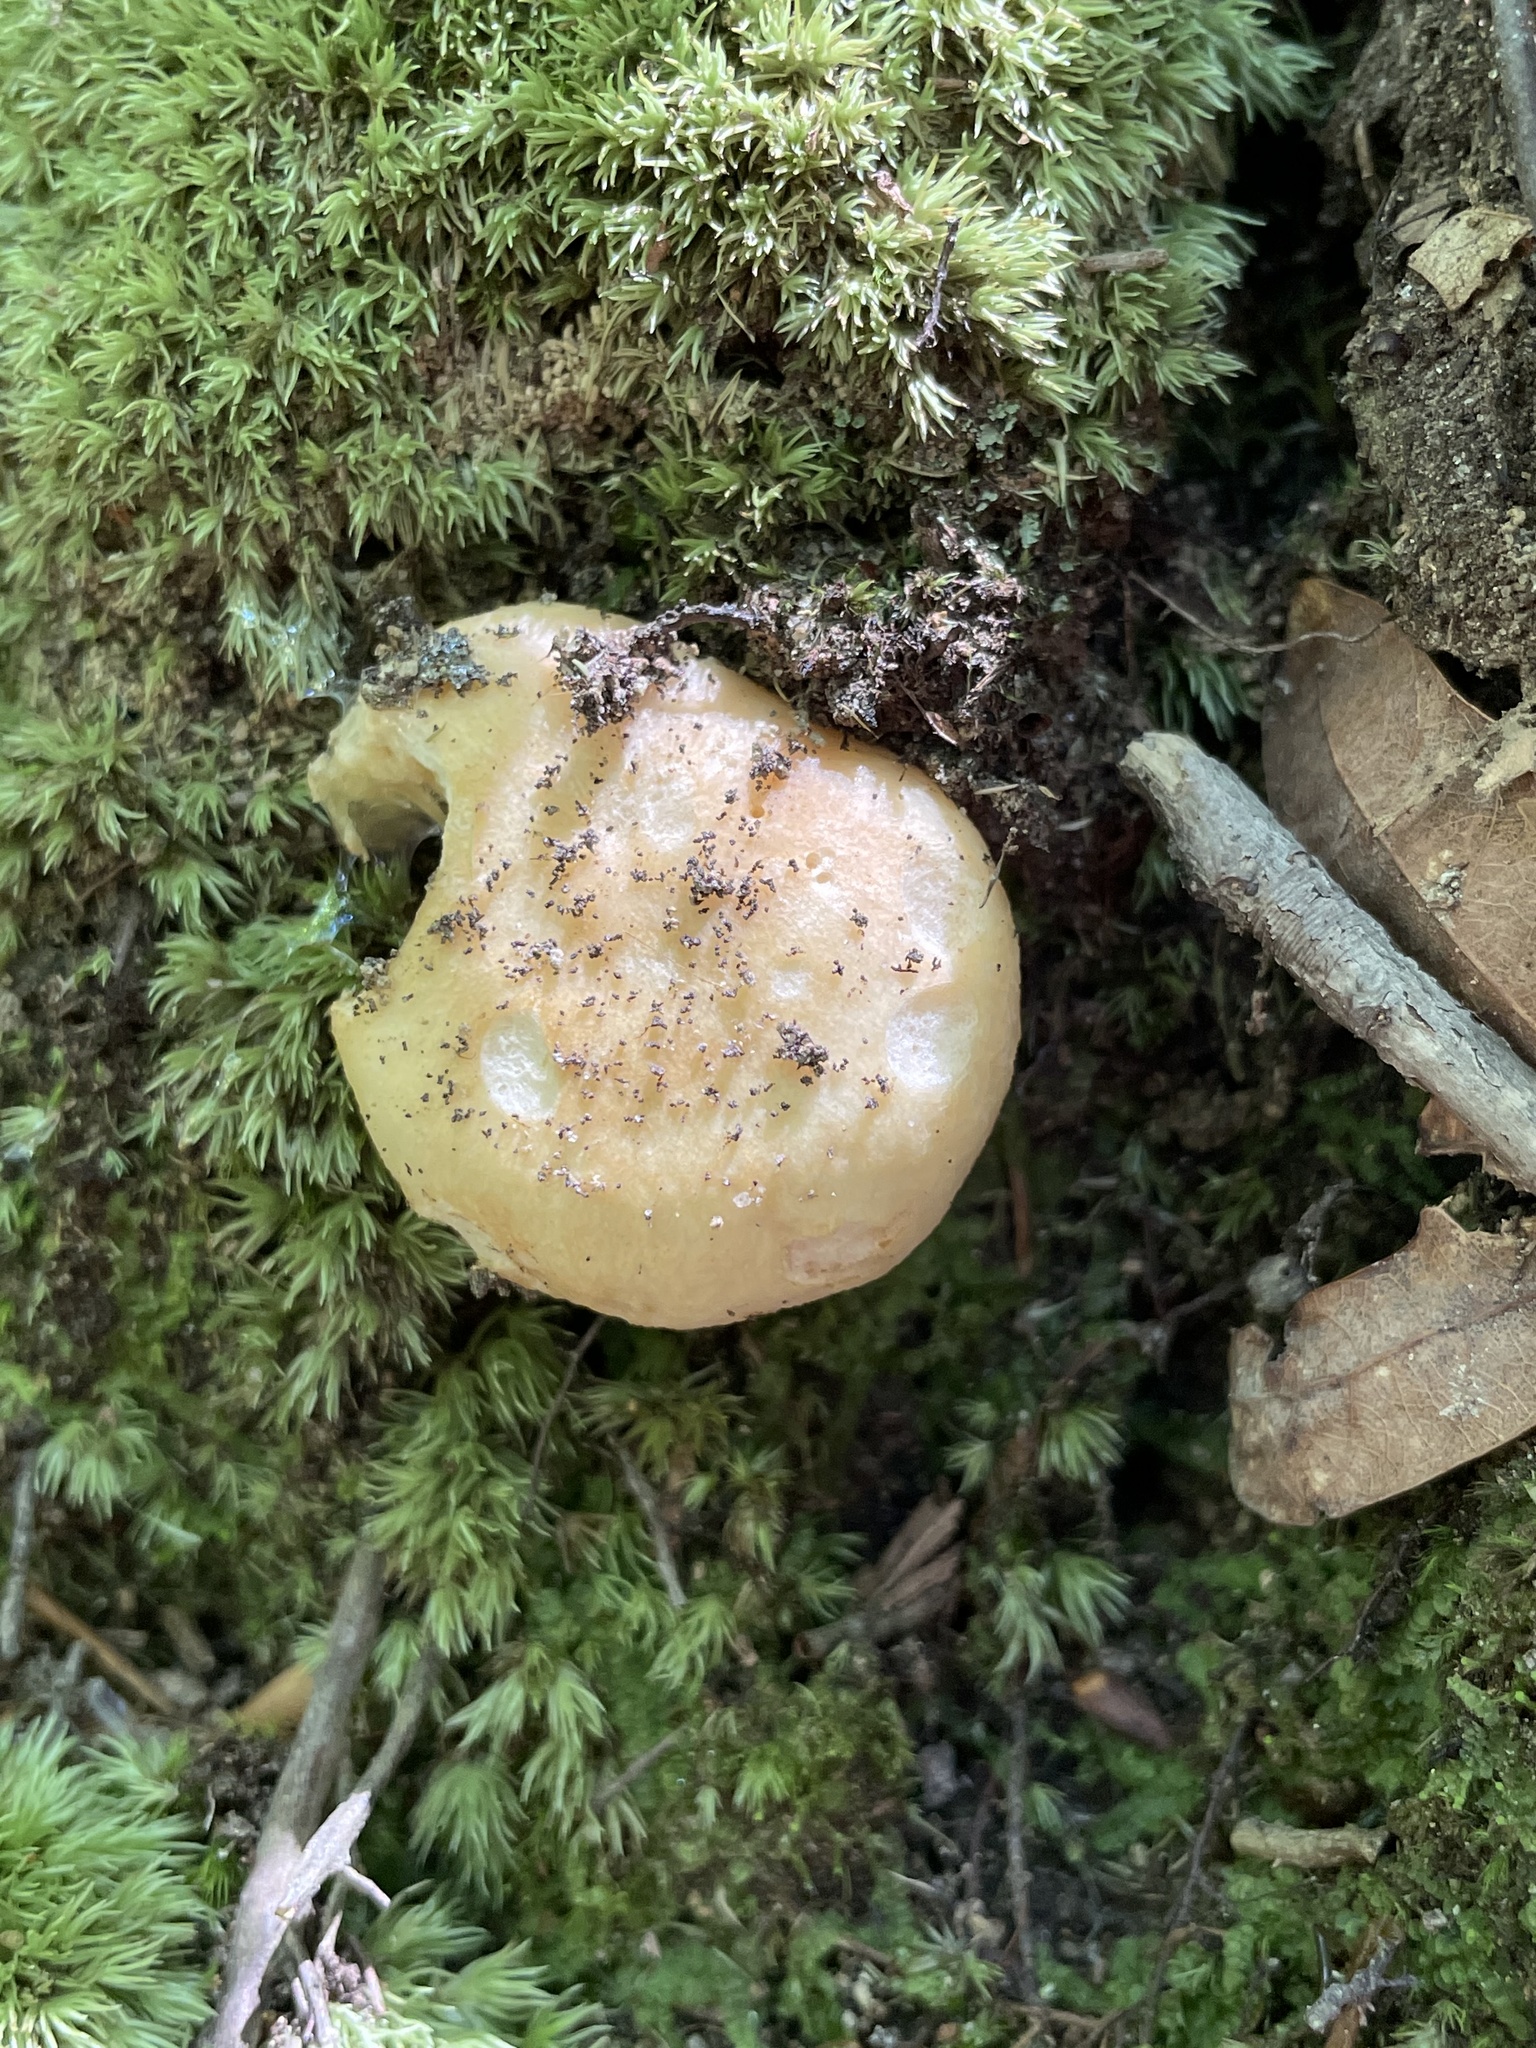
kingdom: Fungi
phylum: Basidiomycota
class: Agaricomycetes
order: Agaricales
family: Hygrophoraceae
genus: Cuphophyllus
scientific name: Cuphophyllus pratensis
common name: Meadow waxcap
